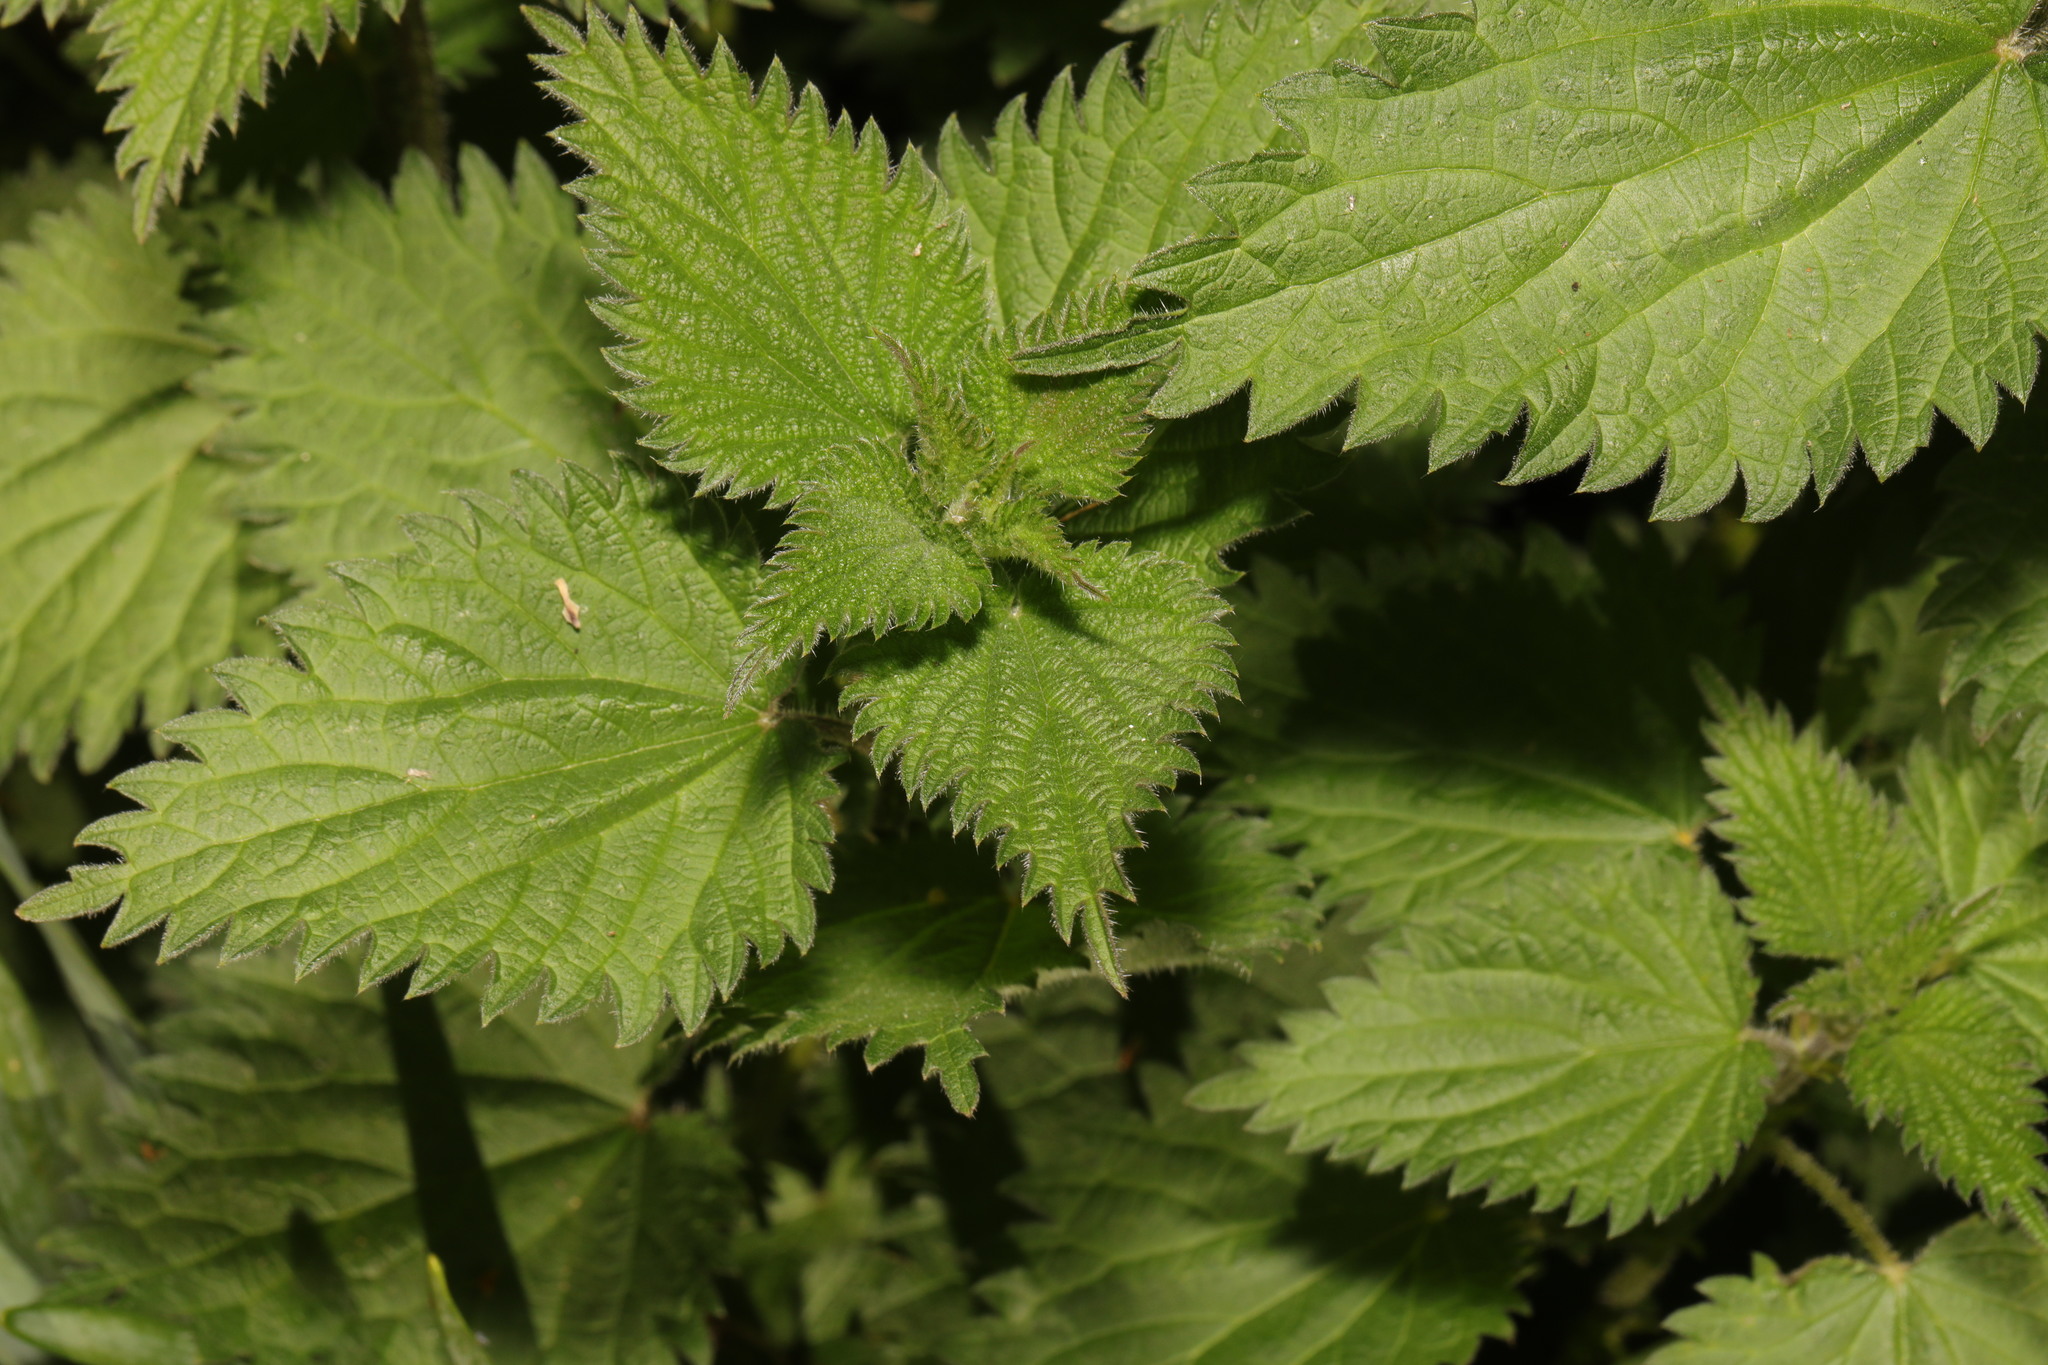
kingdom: Plantae
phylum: Tracheophyta
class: Magnoliopsida
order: Rosales
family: Urticaceae
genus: Urtica
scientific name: Urtica dioica
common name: Common nettle
